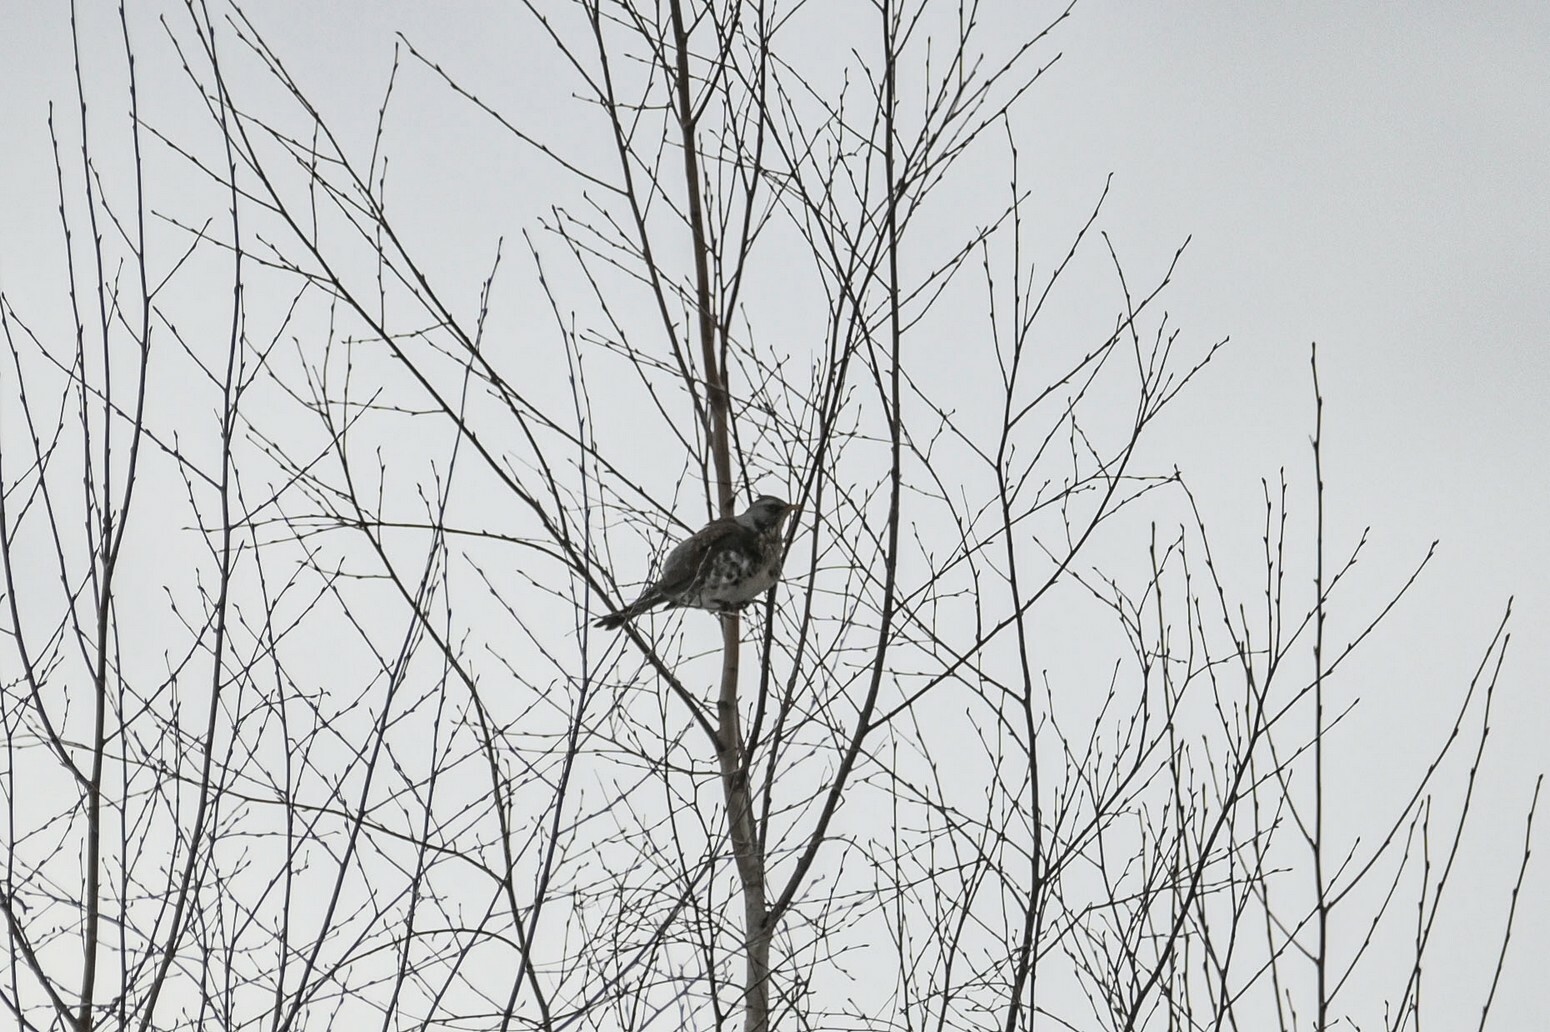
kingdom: Animalia
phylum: Chordata
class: Aves
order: Passeriformes
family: Turdidae
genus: Turdus
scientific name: Turdus pilaris
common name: Fieldfare
